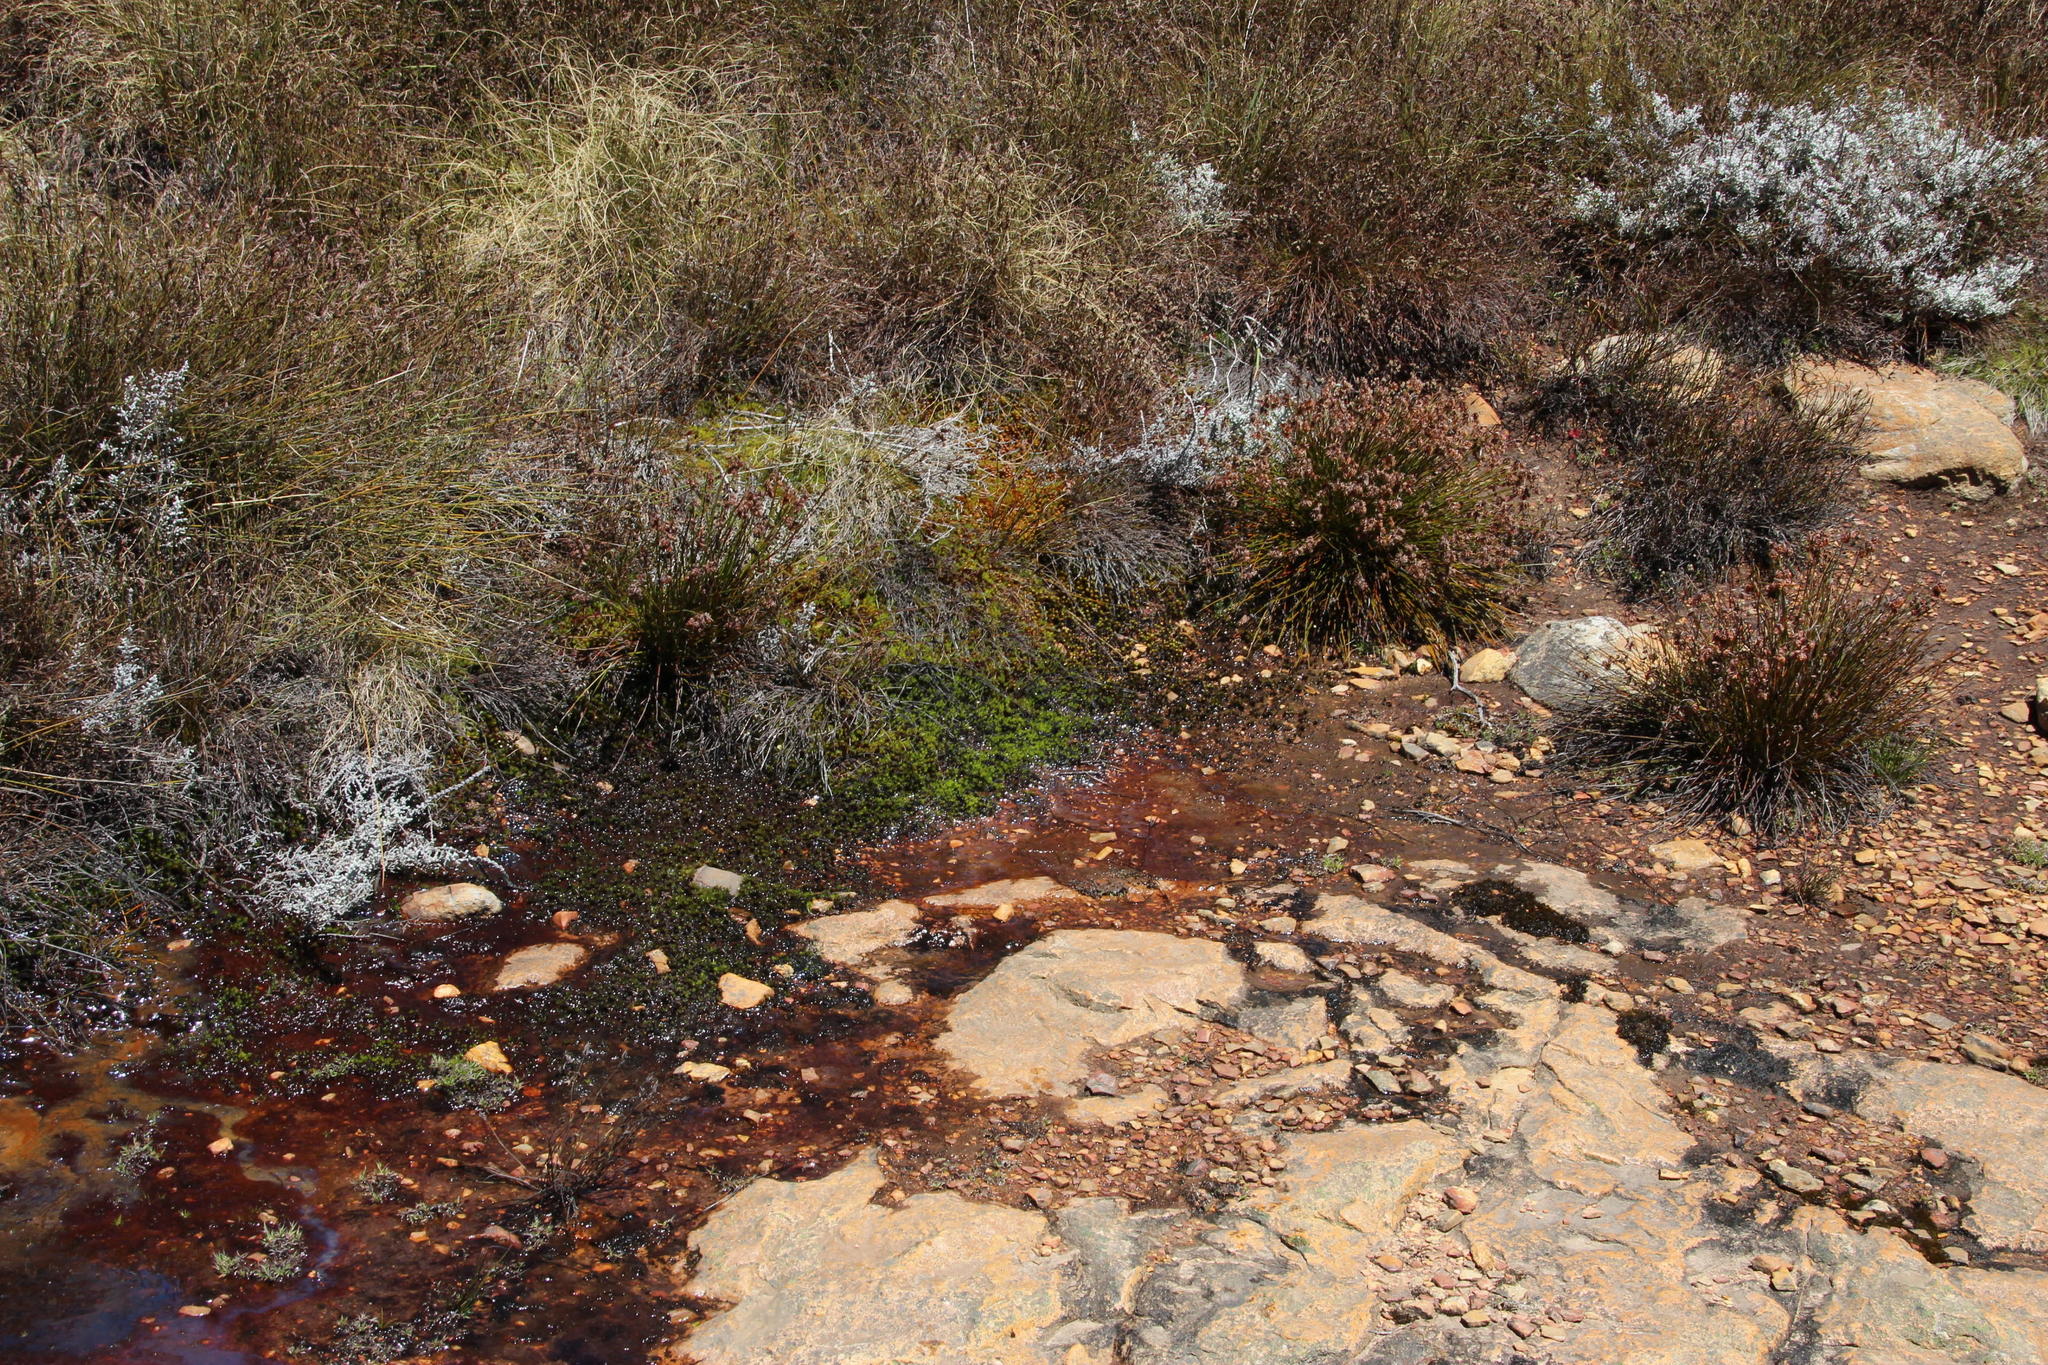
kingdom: Plantae
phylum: Bryophyta
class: Polytrichopsida
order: Polytrichales
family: Polytrichaceae
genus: Polytrichum
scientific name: Polytrichum juniperinum
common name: Juniper haircap moss
